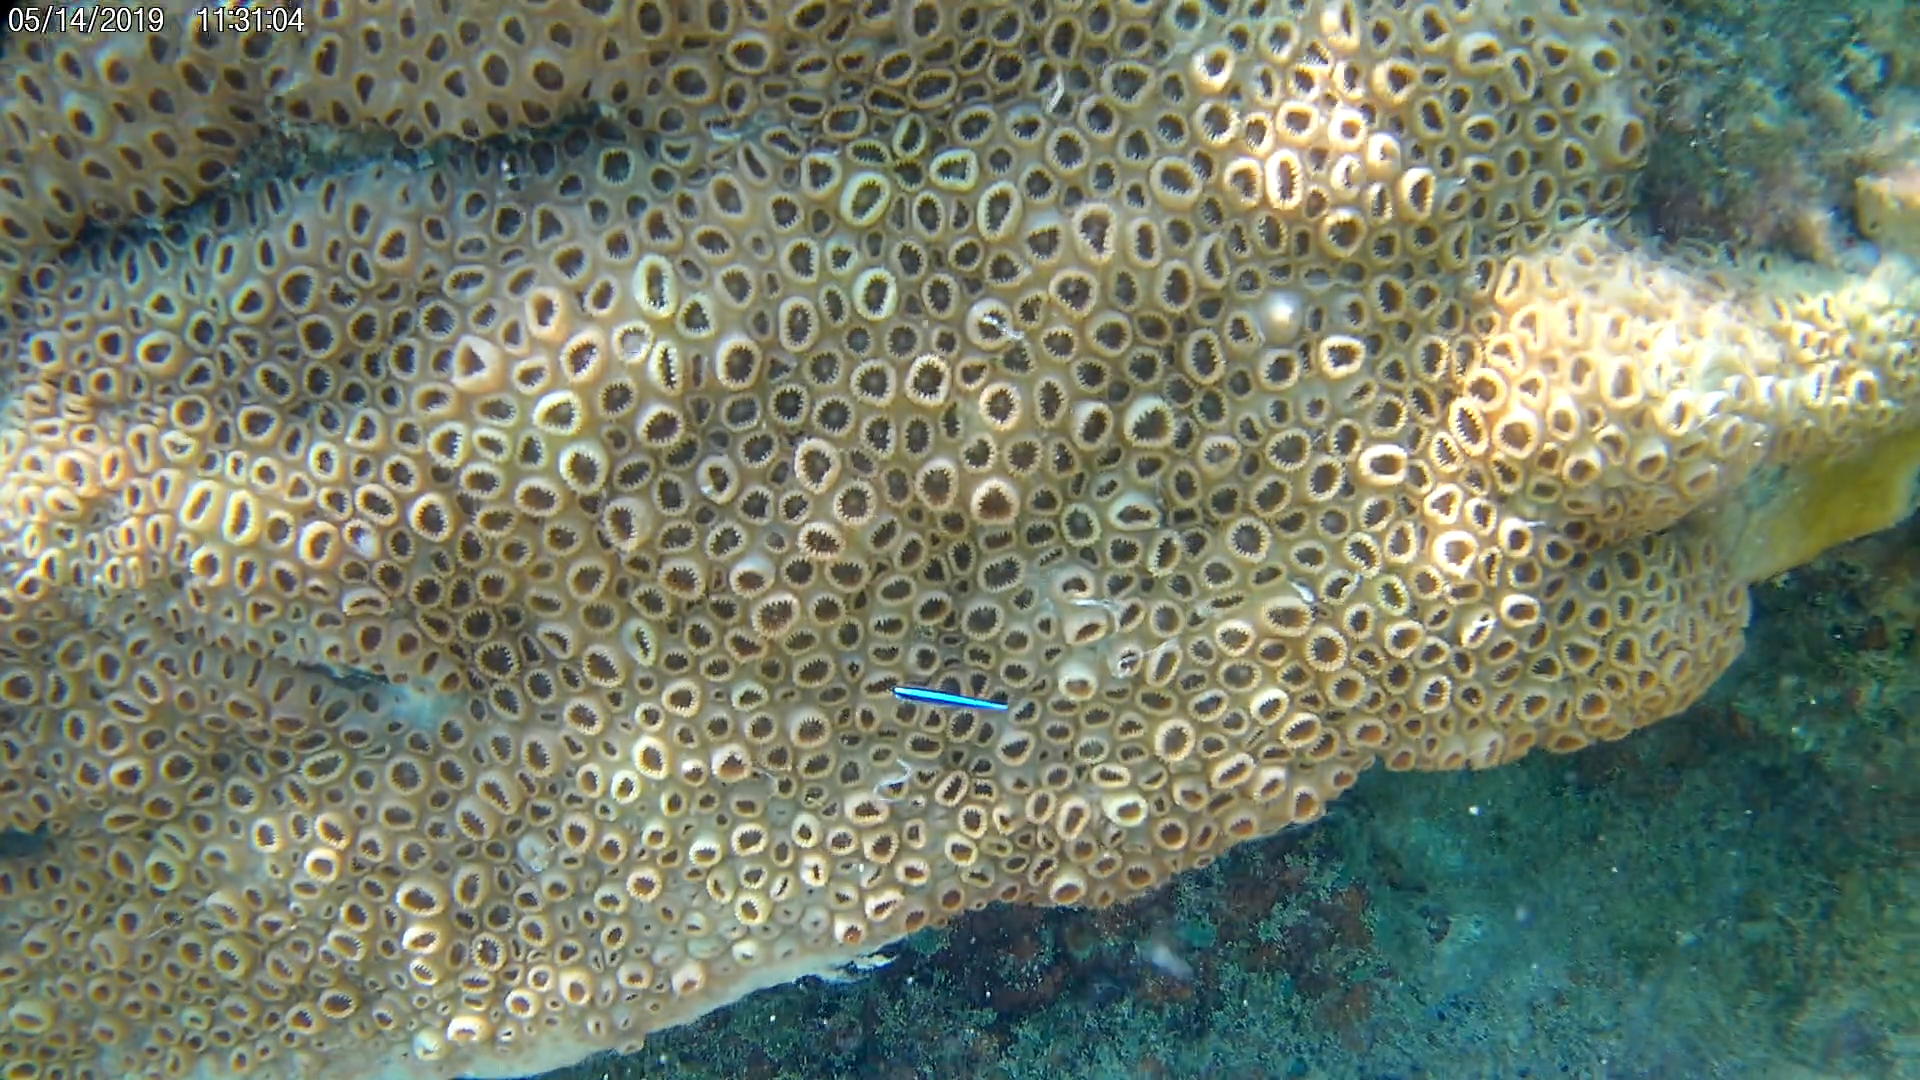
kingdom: Animalia
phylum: Chordata
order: Perciformes
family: Gobiidae
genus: Elacatinus
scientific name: Elacatinus oceanops
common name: Northern neon goby
